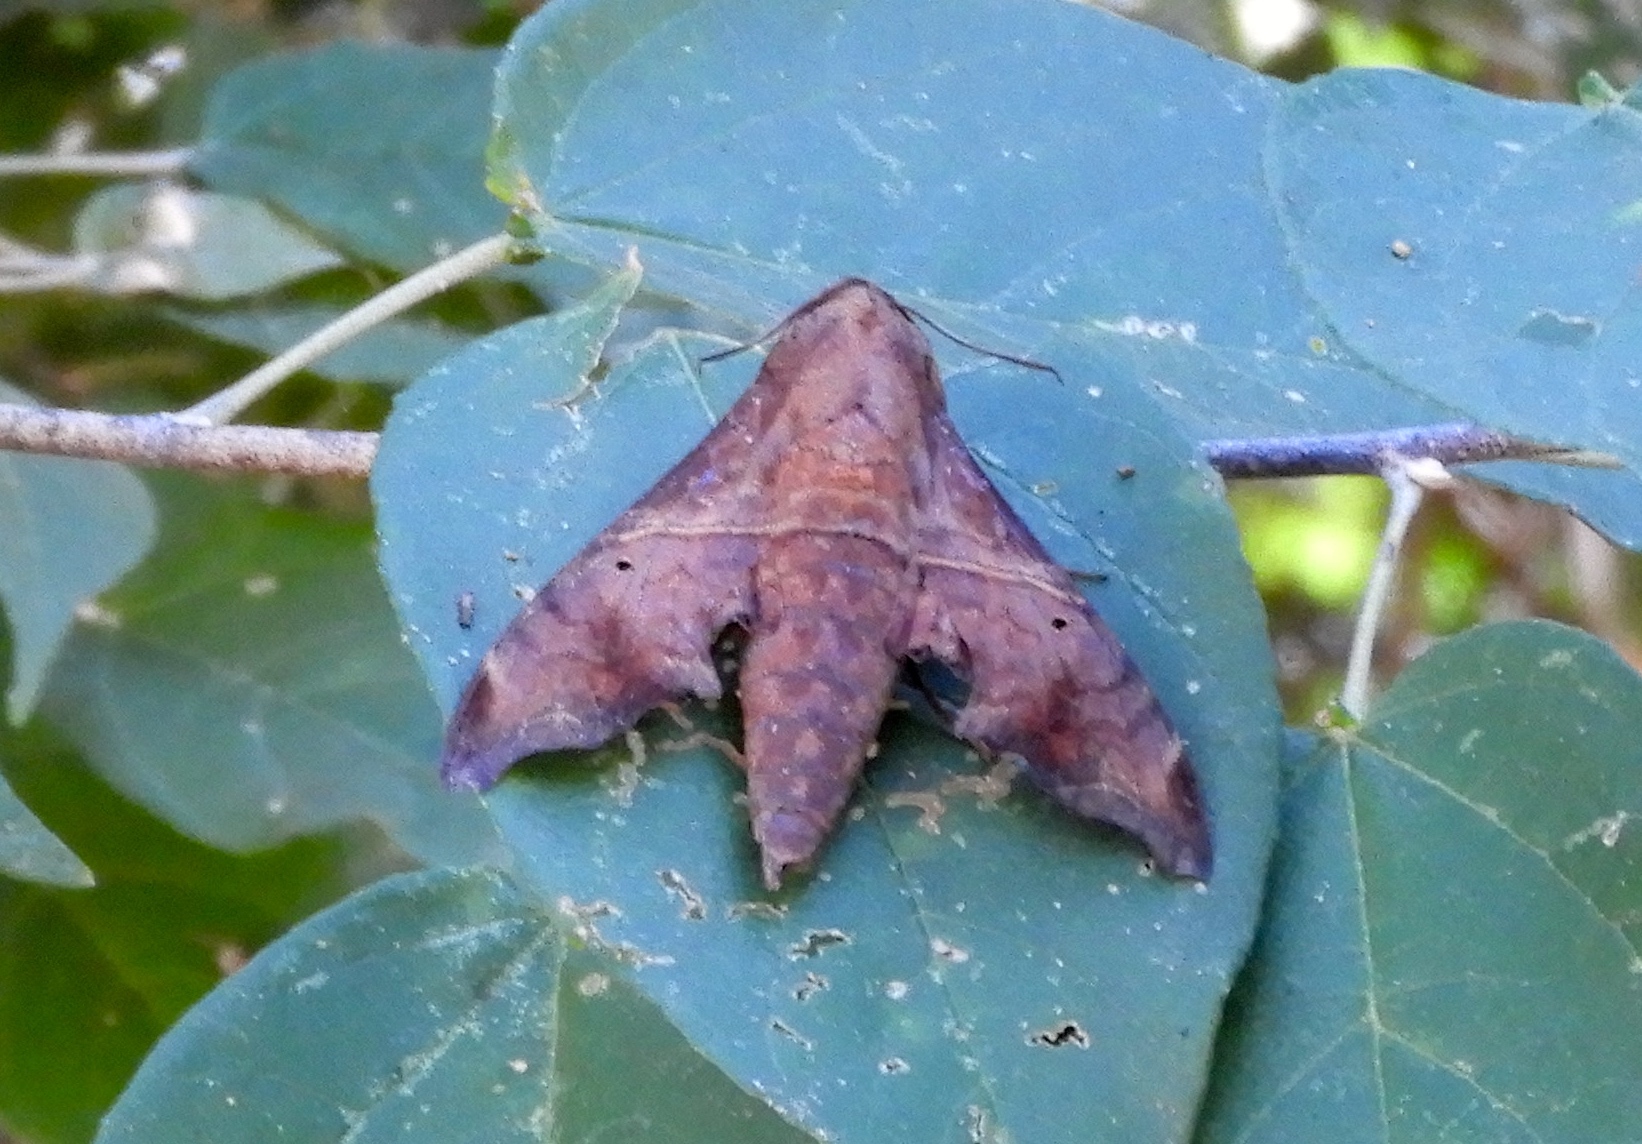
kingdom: Animalia
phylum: Arthropoda
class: Insecta
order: Lepidoptera
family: Sphingidae
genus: Enyo
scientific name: Enyo
